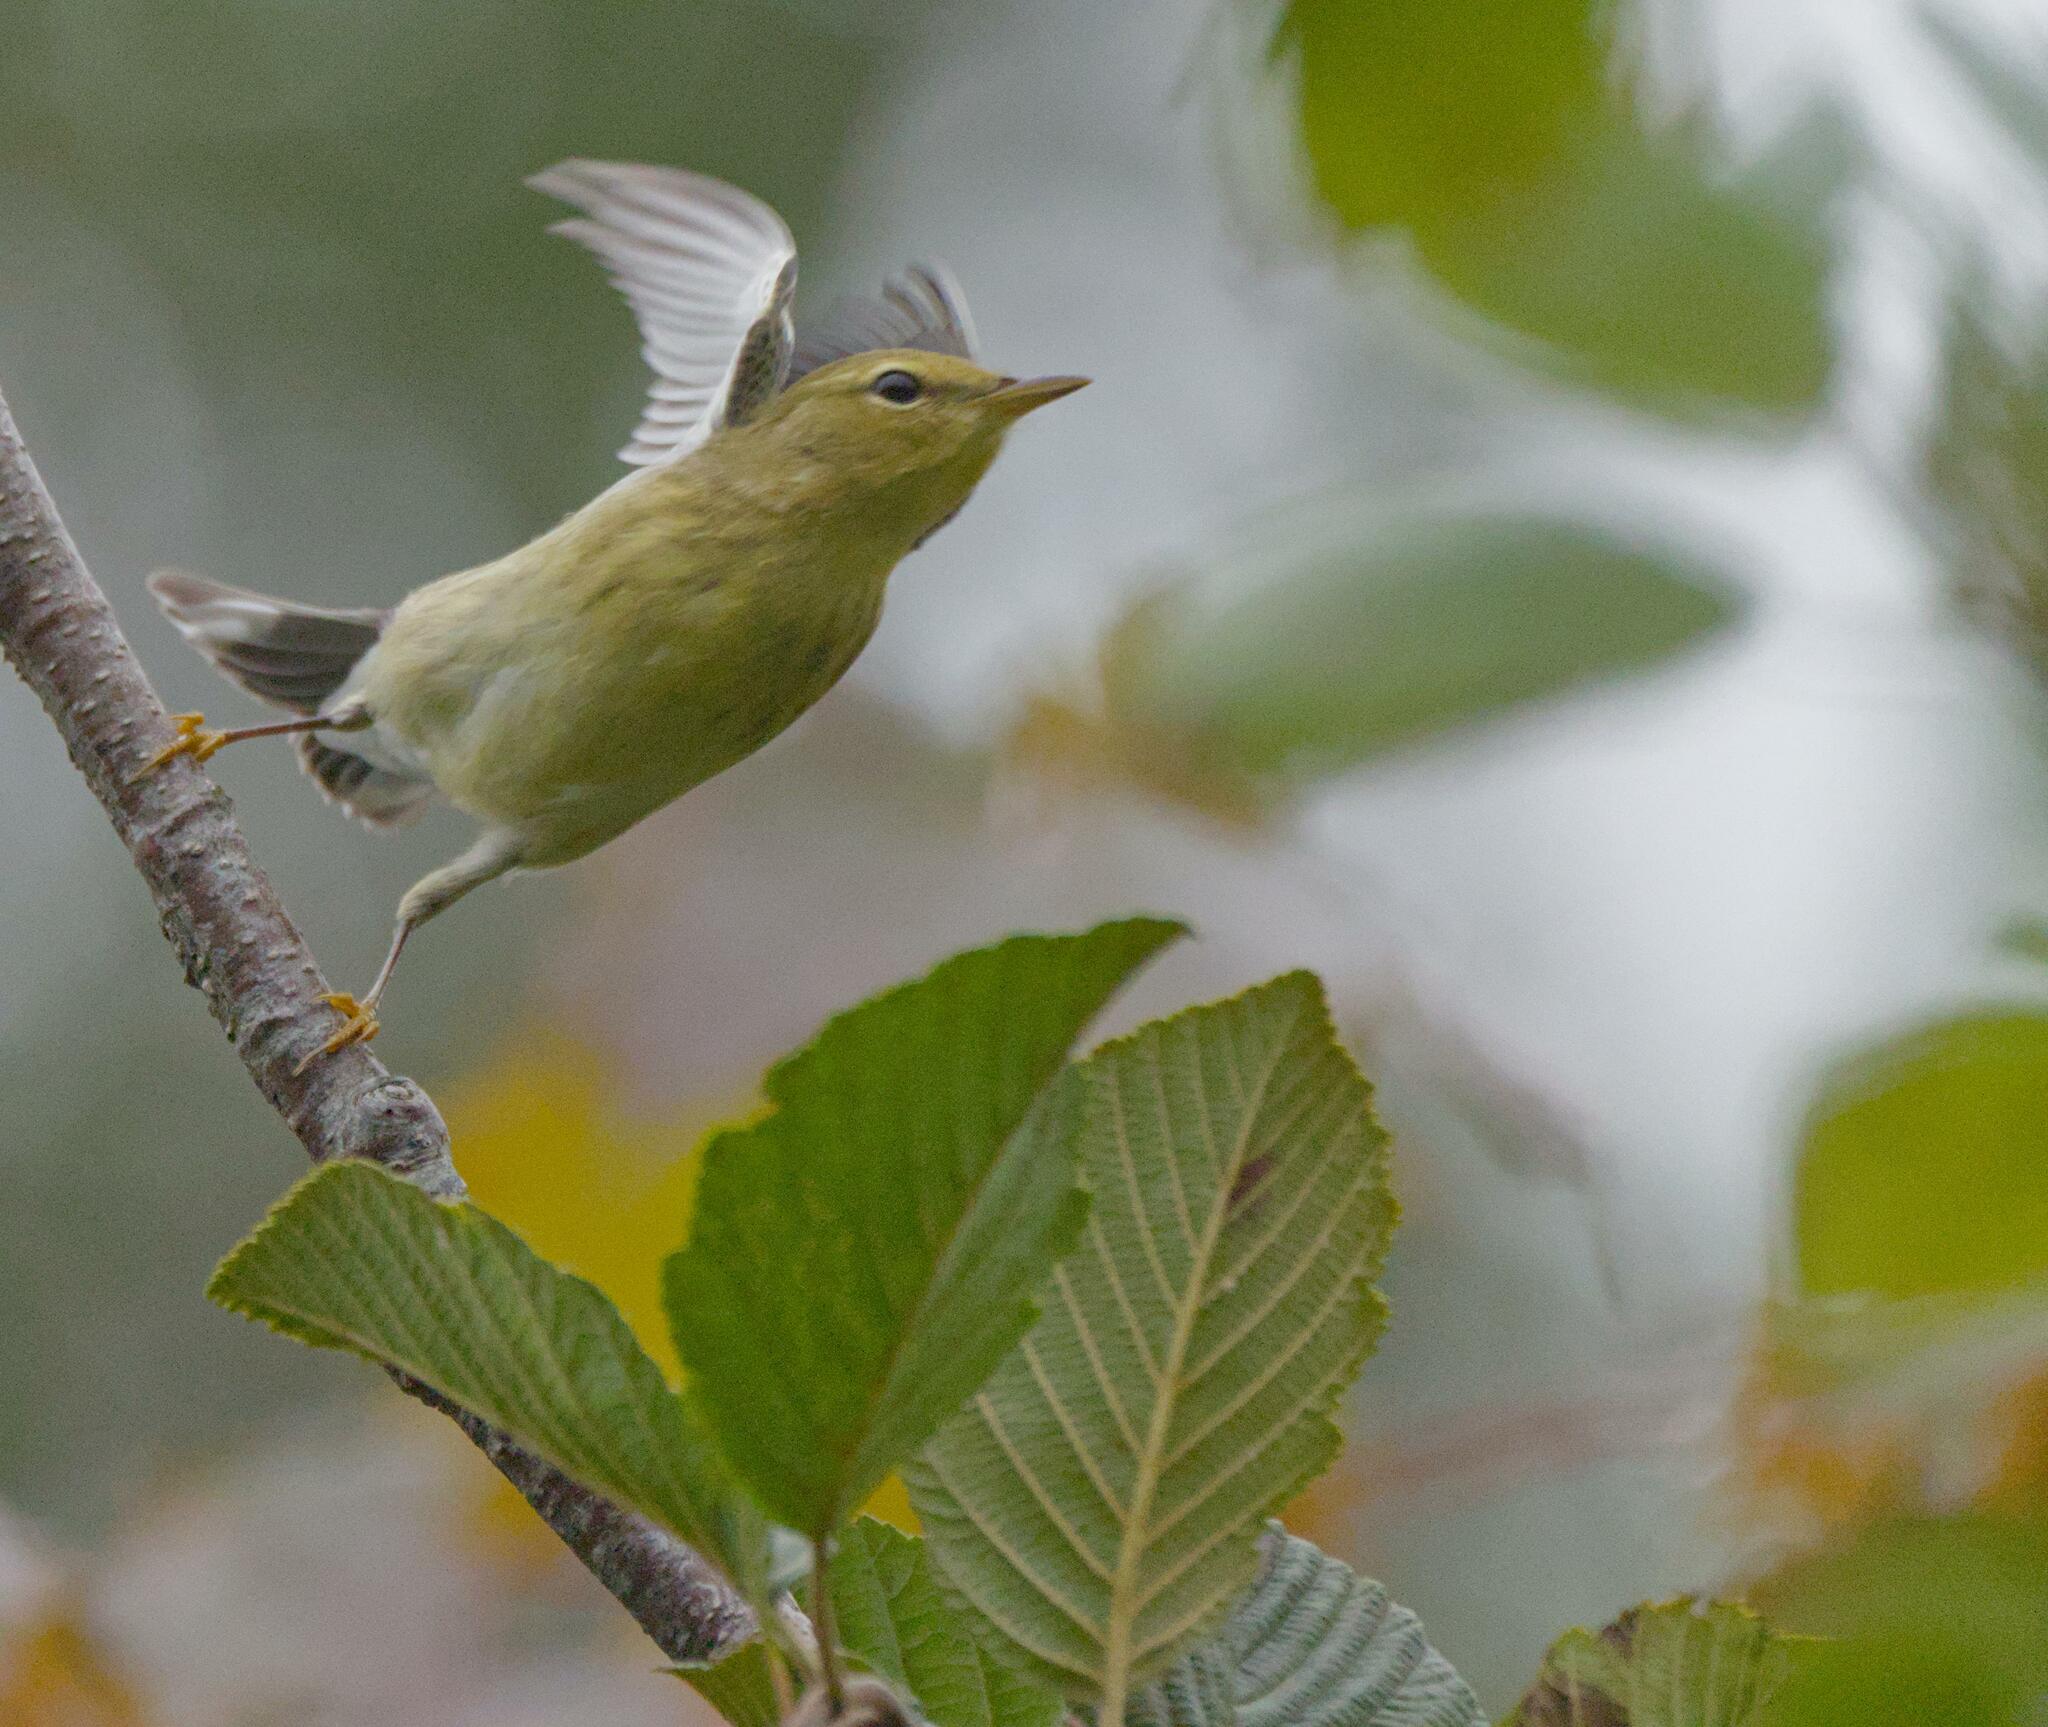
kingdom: Animalia
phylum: Chordata
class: Aves
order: Passeriformes
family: Parulidae
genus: Setophaga
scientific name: Setophaga striata
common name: Blackpoll warbler
